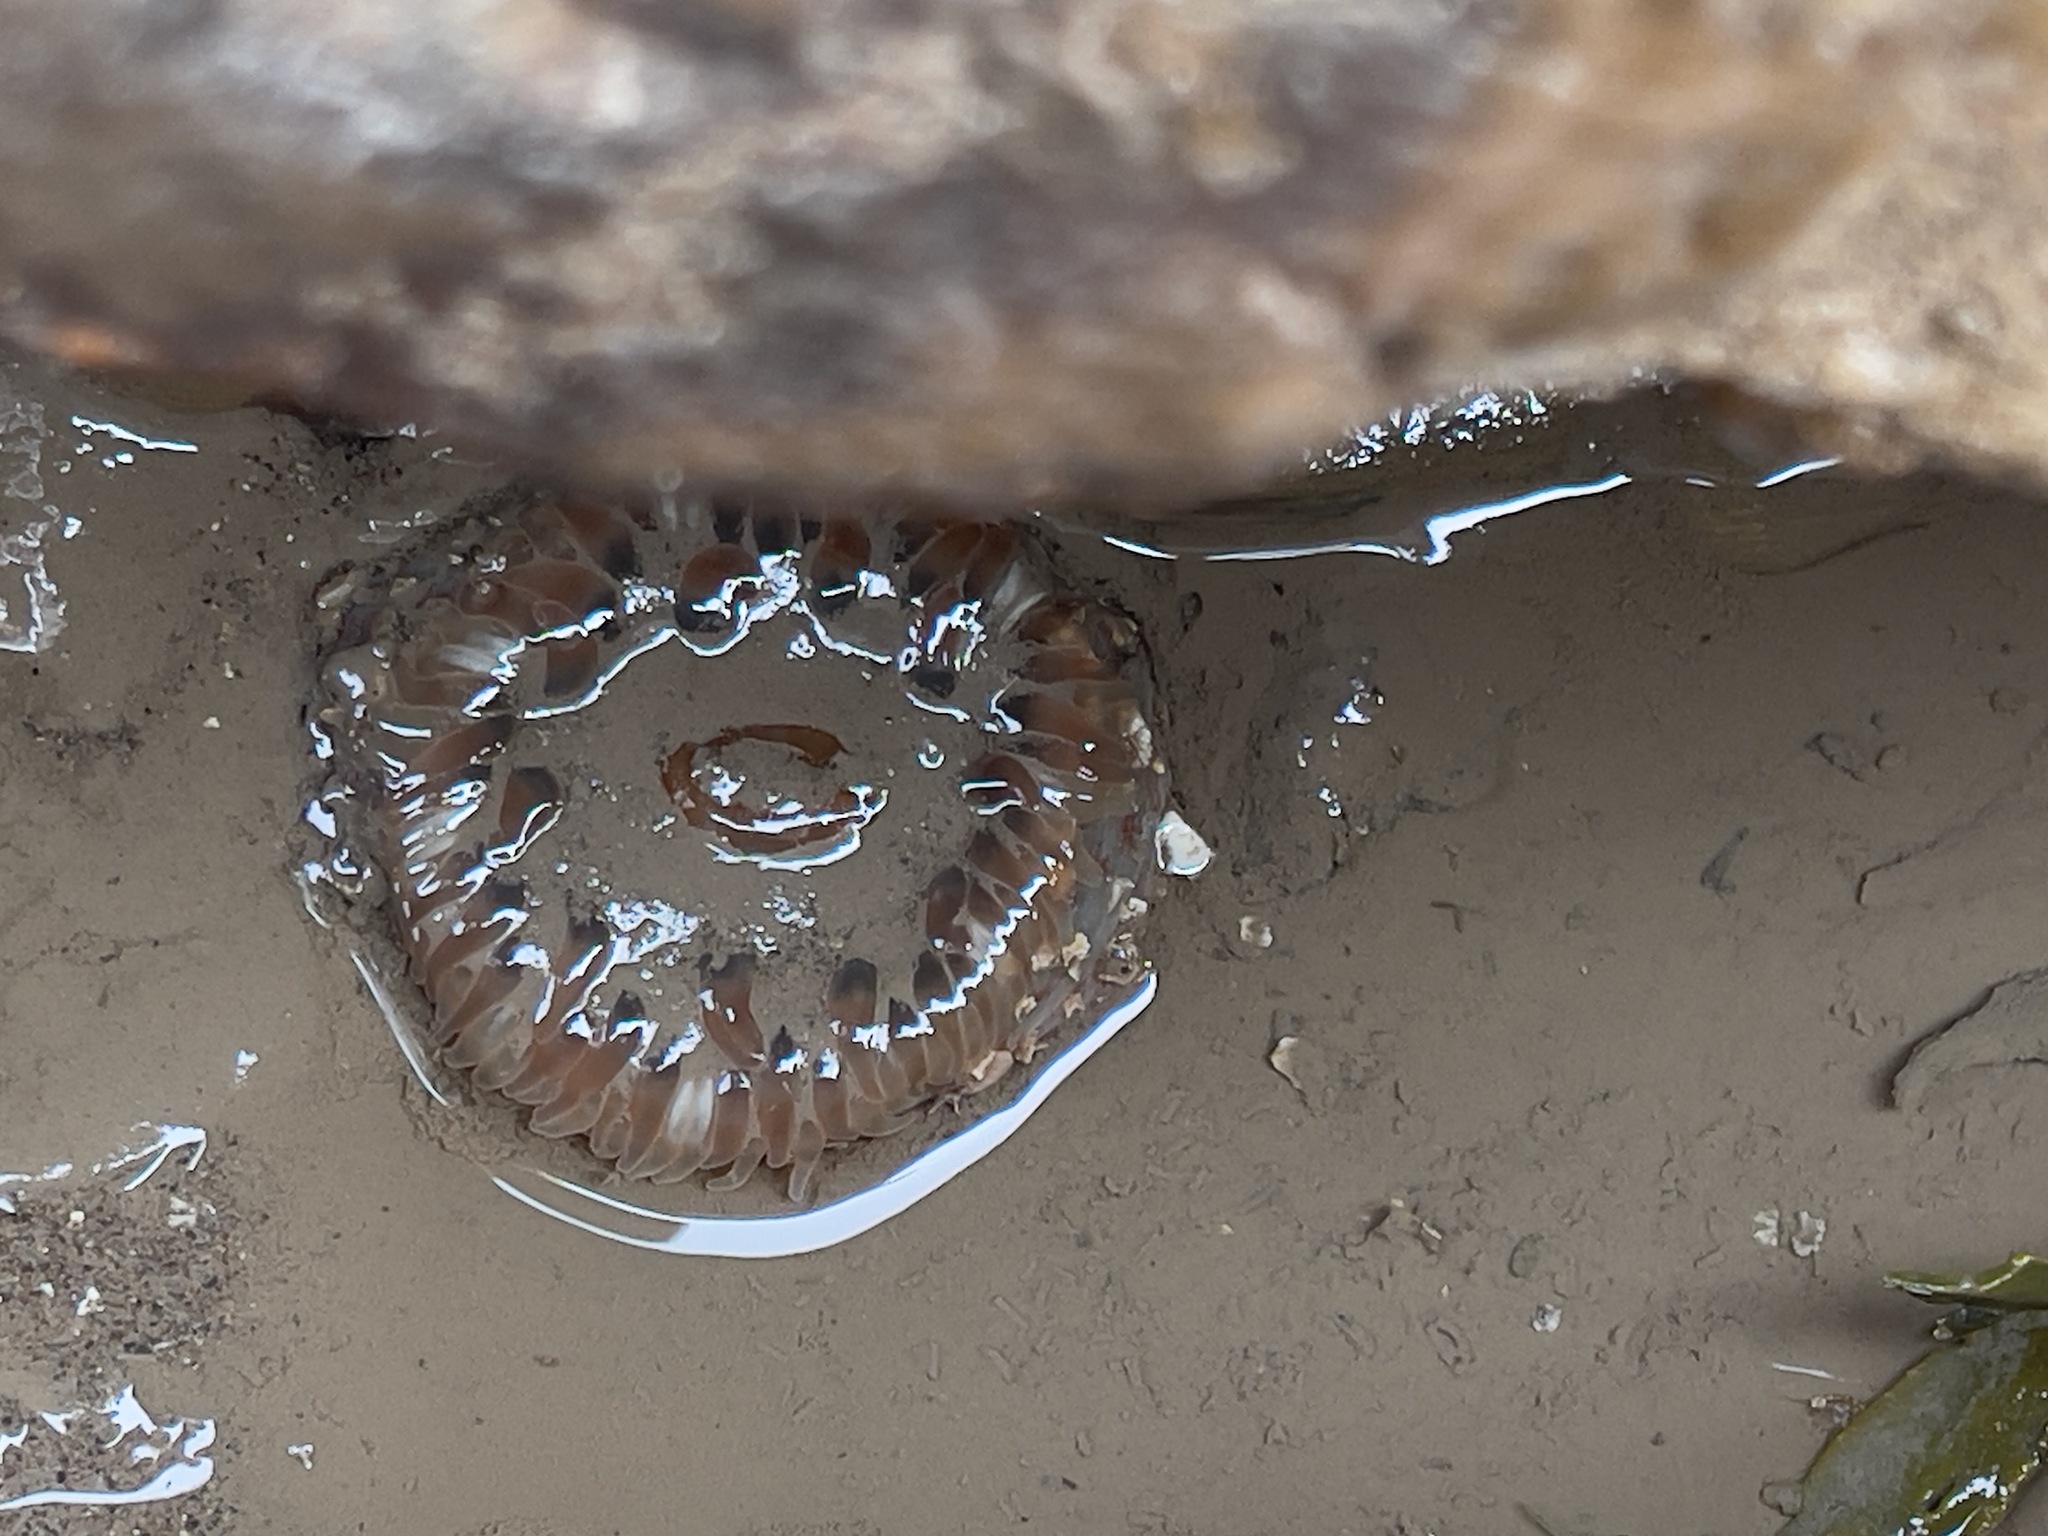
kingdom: Animalia
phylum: Cnidaria
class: Anthozoa
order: Actiniaria
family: Actiniidae
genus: Urticina
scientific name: Urticina felina
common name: Dahlia anemone
